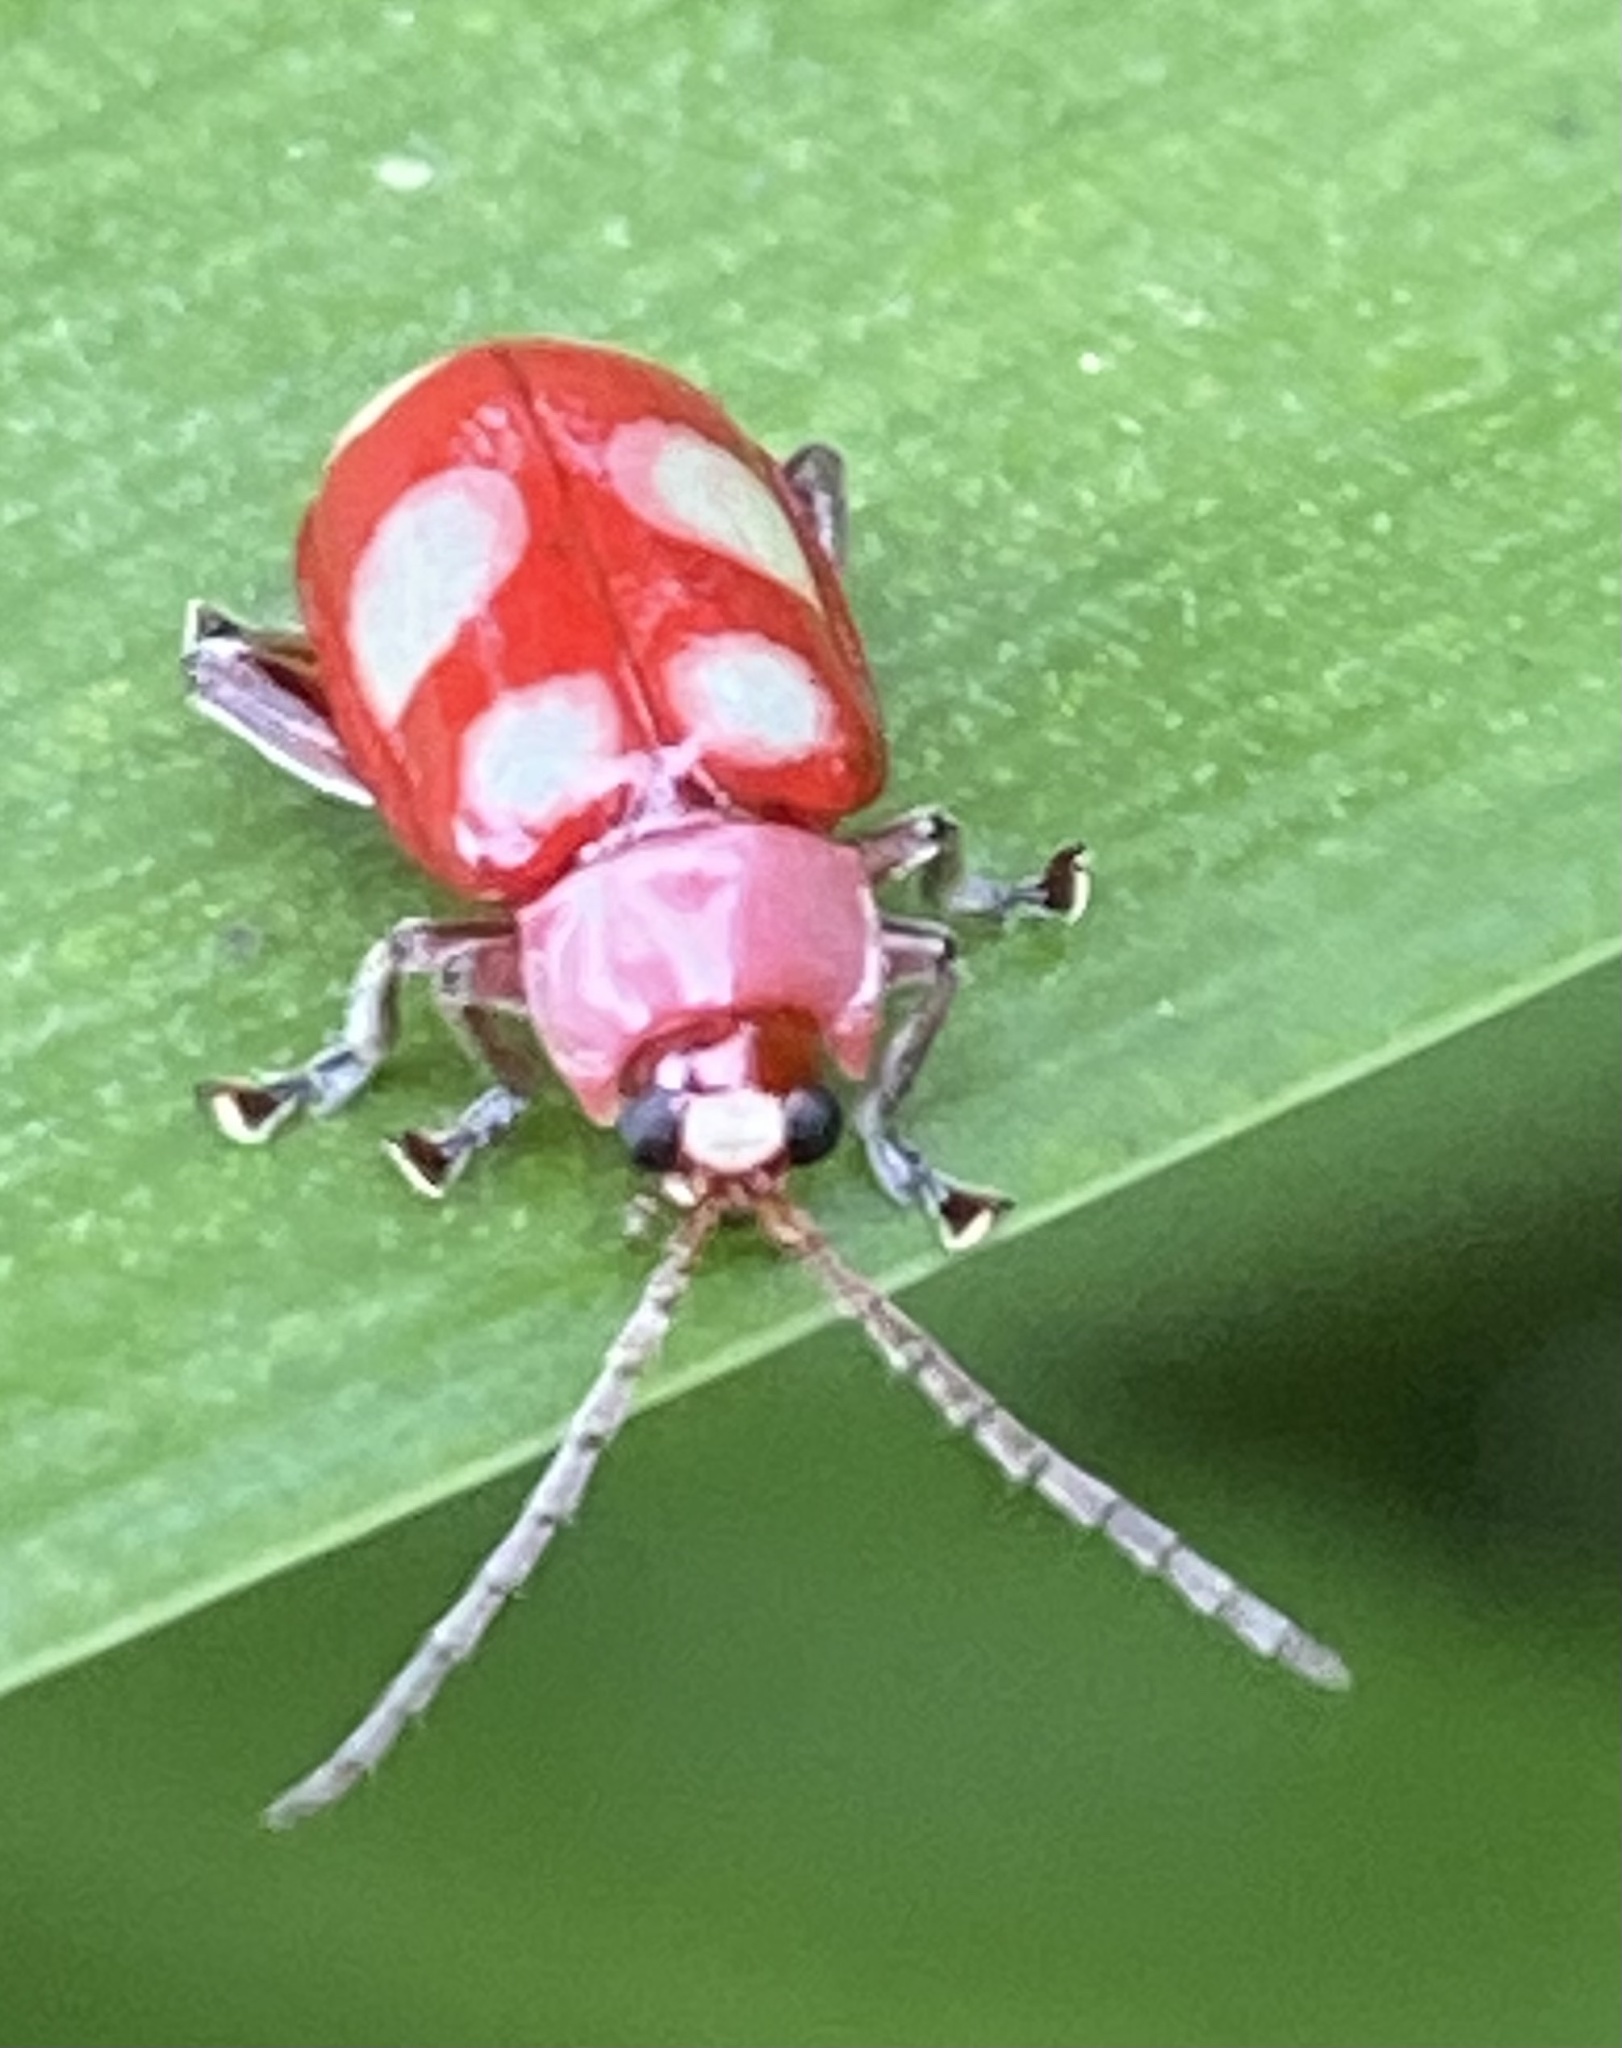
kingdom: Animalia
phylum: Arthropoda
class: Insecta
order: Coleoptera
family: Chrysomelidae
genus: Omophoita
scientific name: Omophoita sexnotata
